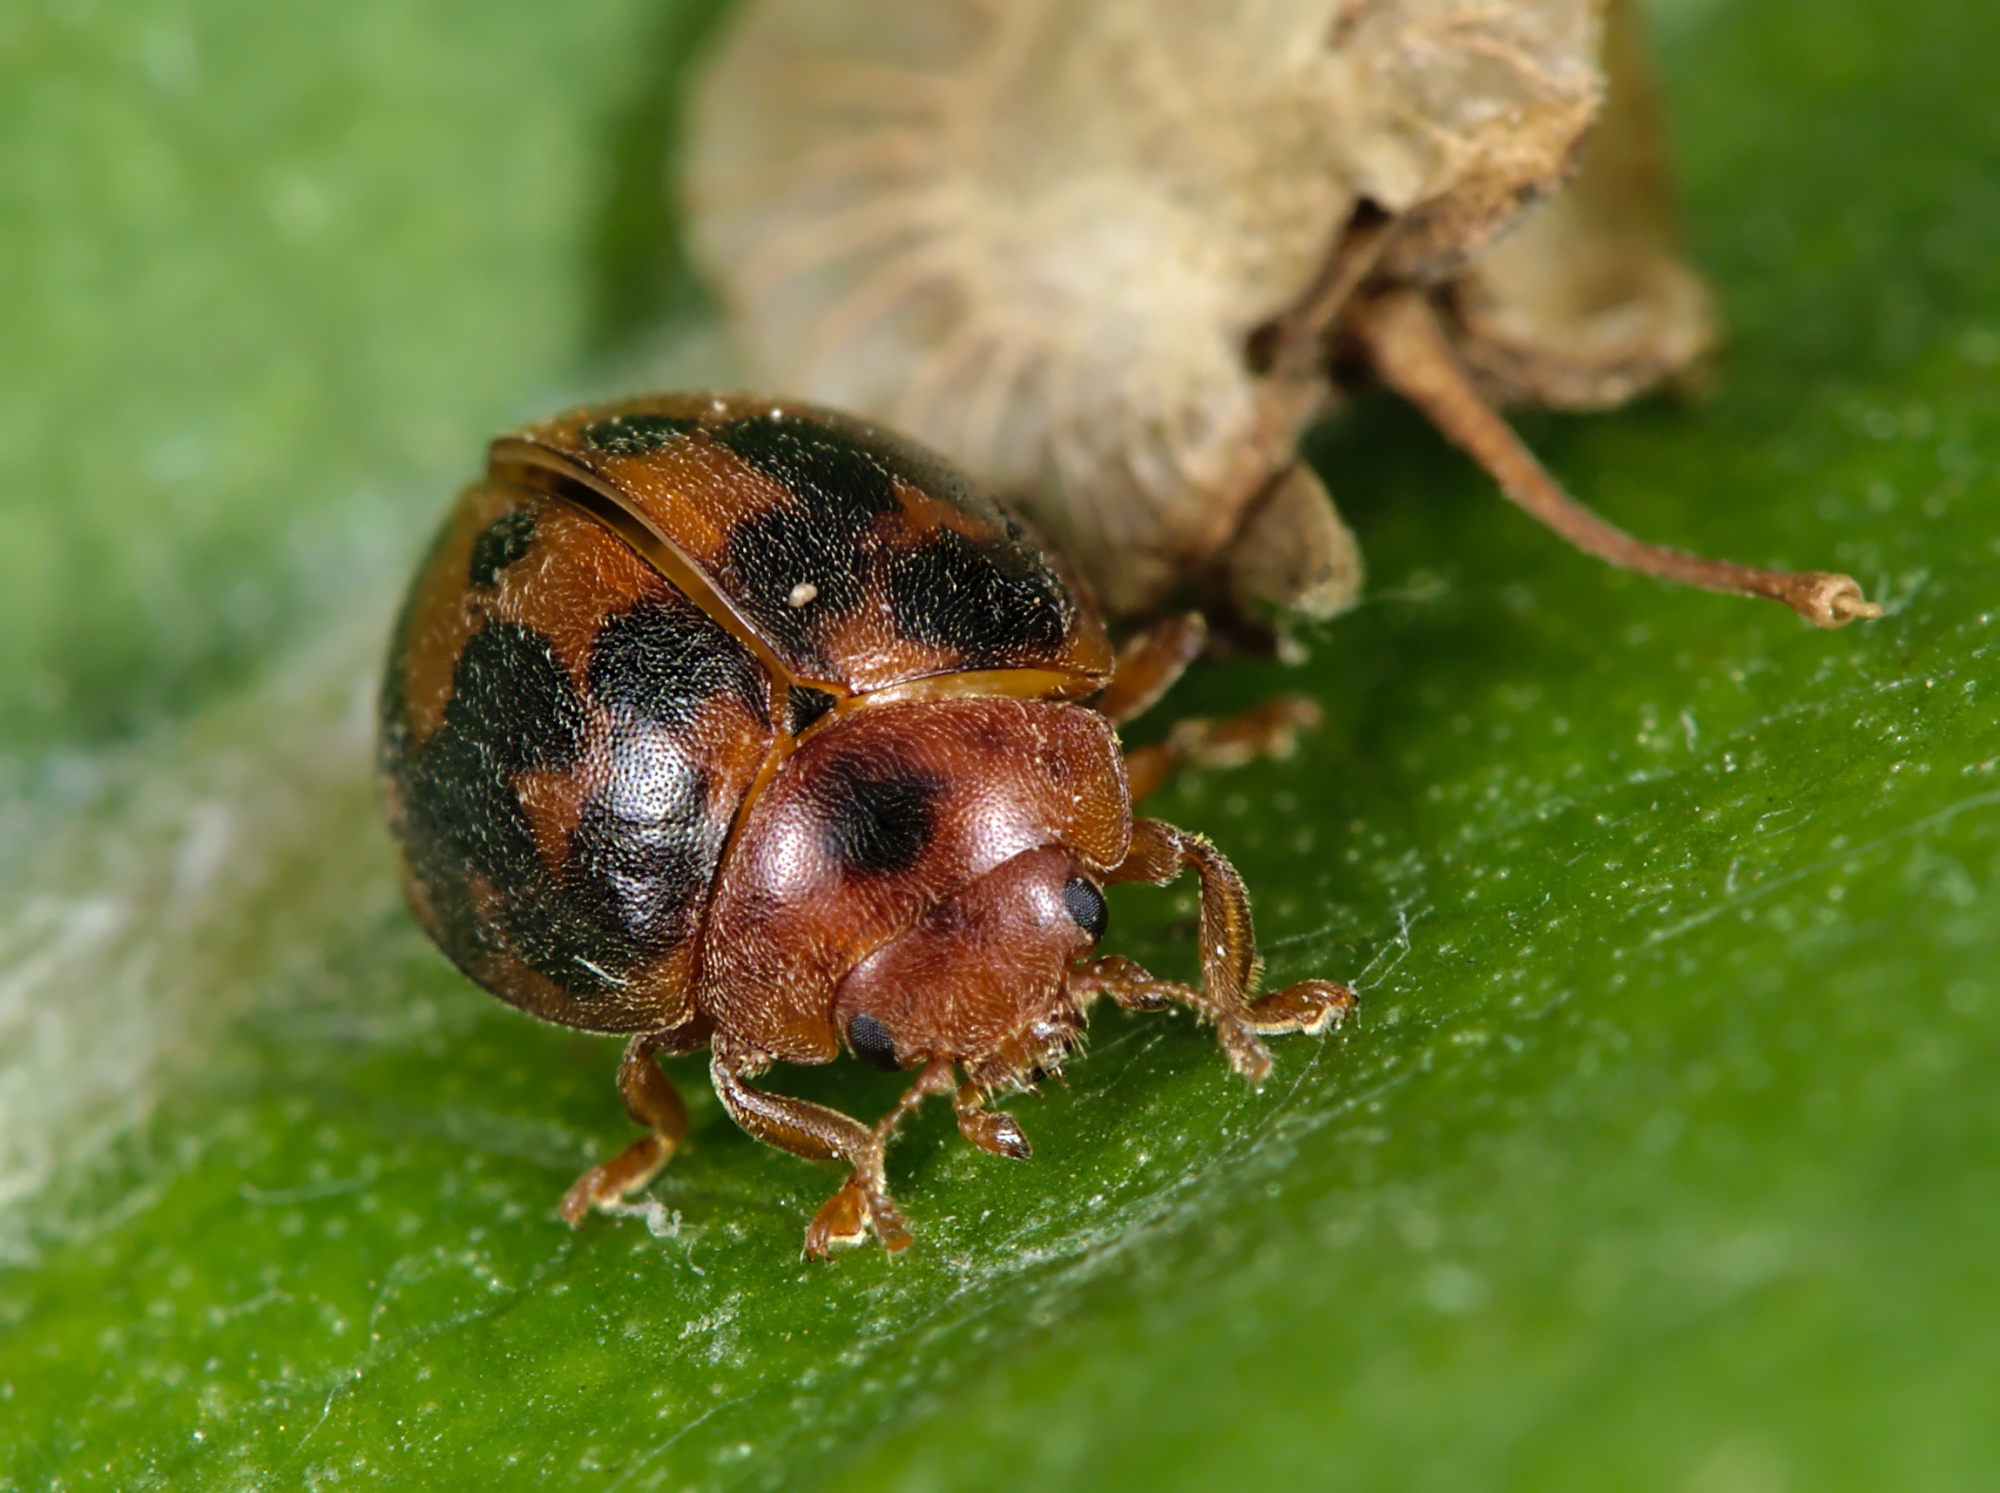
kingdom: Animalia
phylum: Arthropoda
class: Insecta
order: Coleoptera
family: Coccinellidae
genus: Subcoccinella
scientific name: Subcoccinella vigintiquatuorpunctata
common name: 24-spot ladybird
